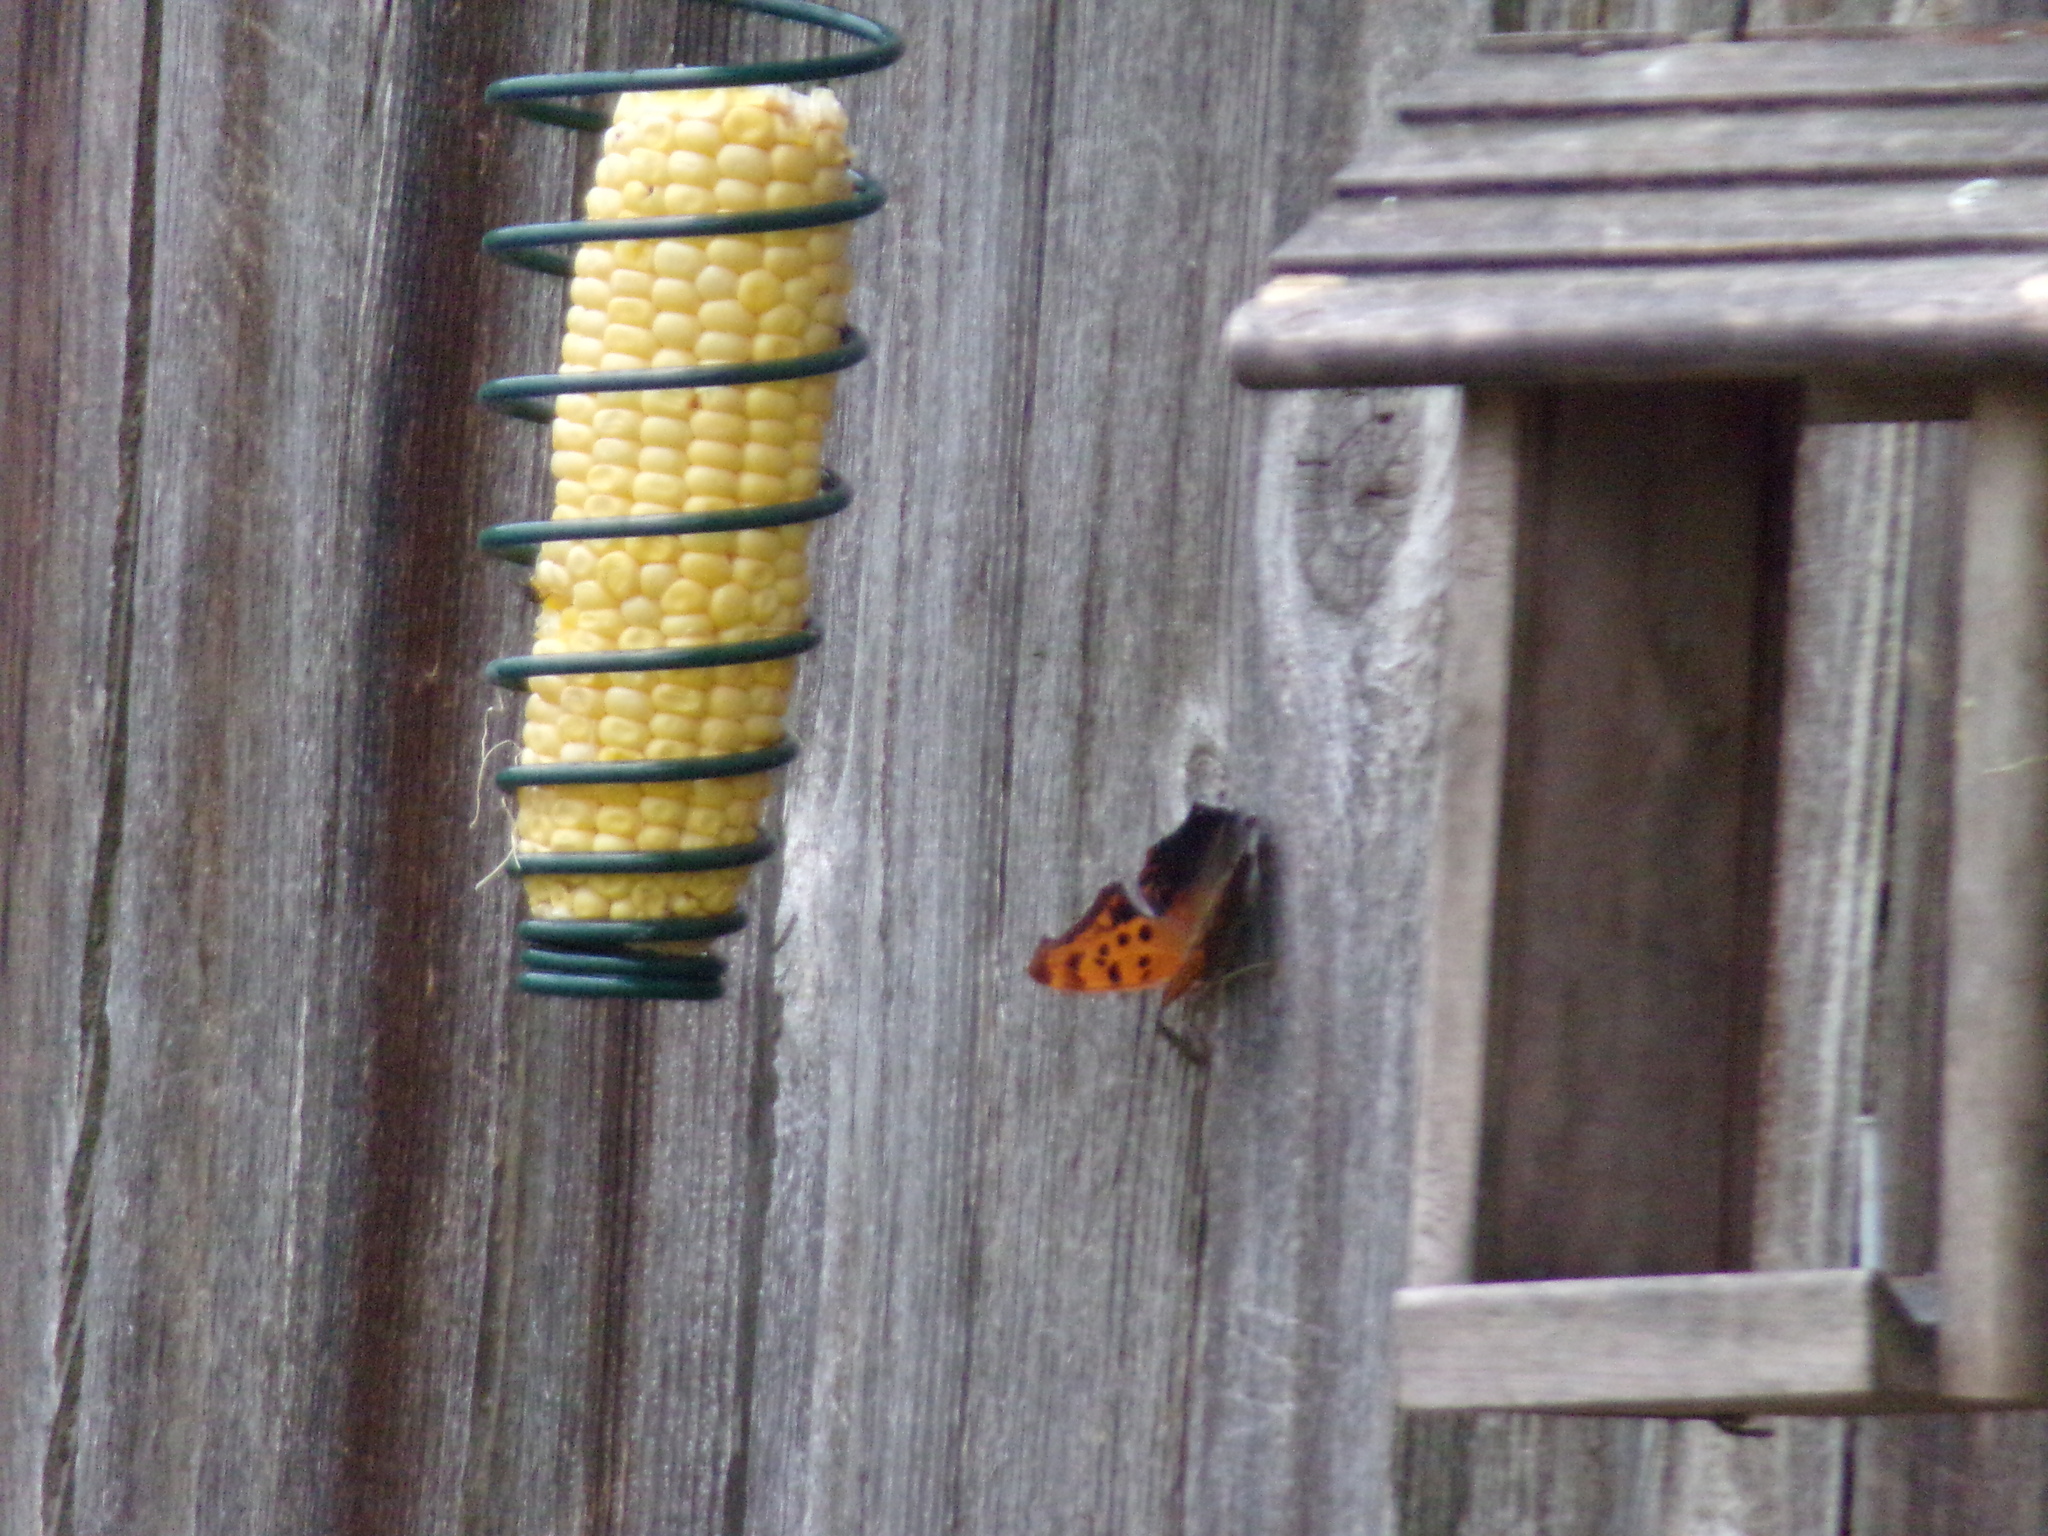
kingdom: Animalia
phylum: Arthropoda
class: Insecta
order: Lepidoptera
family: Nymphalidae
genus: Polygonia
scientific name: Polygonia interrogationis
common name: Question mark
